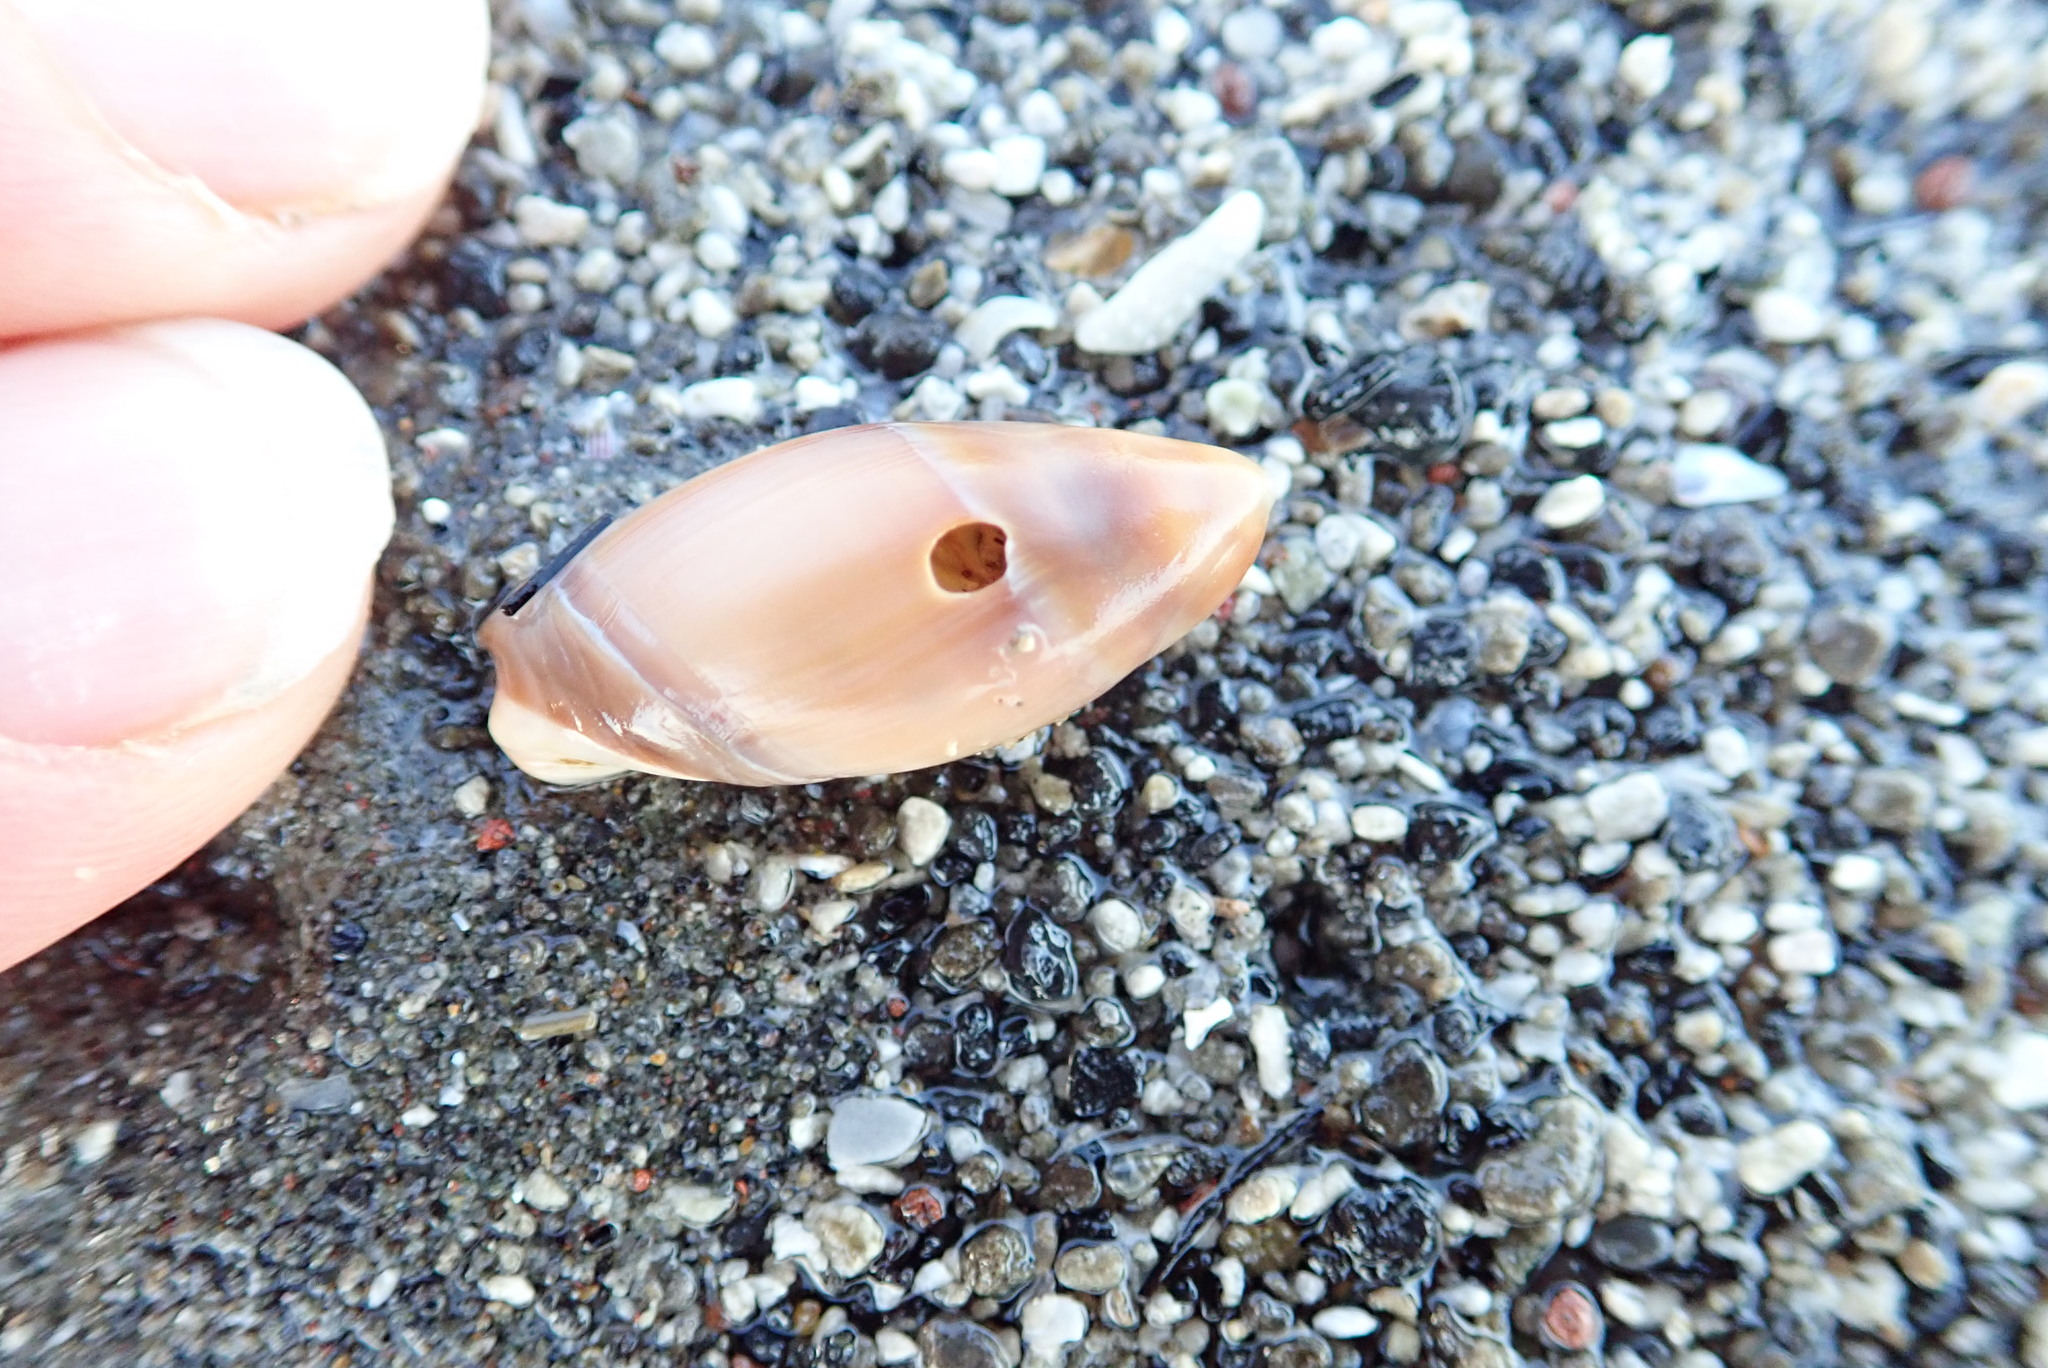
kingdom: Animalia
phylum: Mollusca
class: Gastropoda
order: Neogastropoda
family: Ancillariidae
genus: Amalda
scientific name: Amalda mucronata
